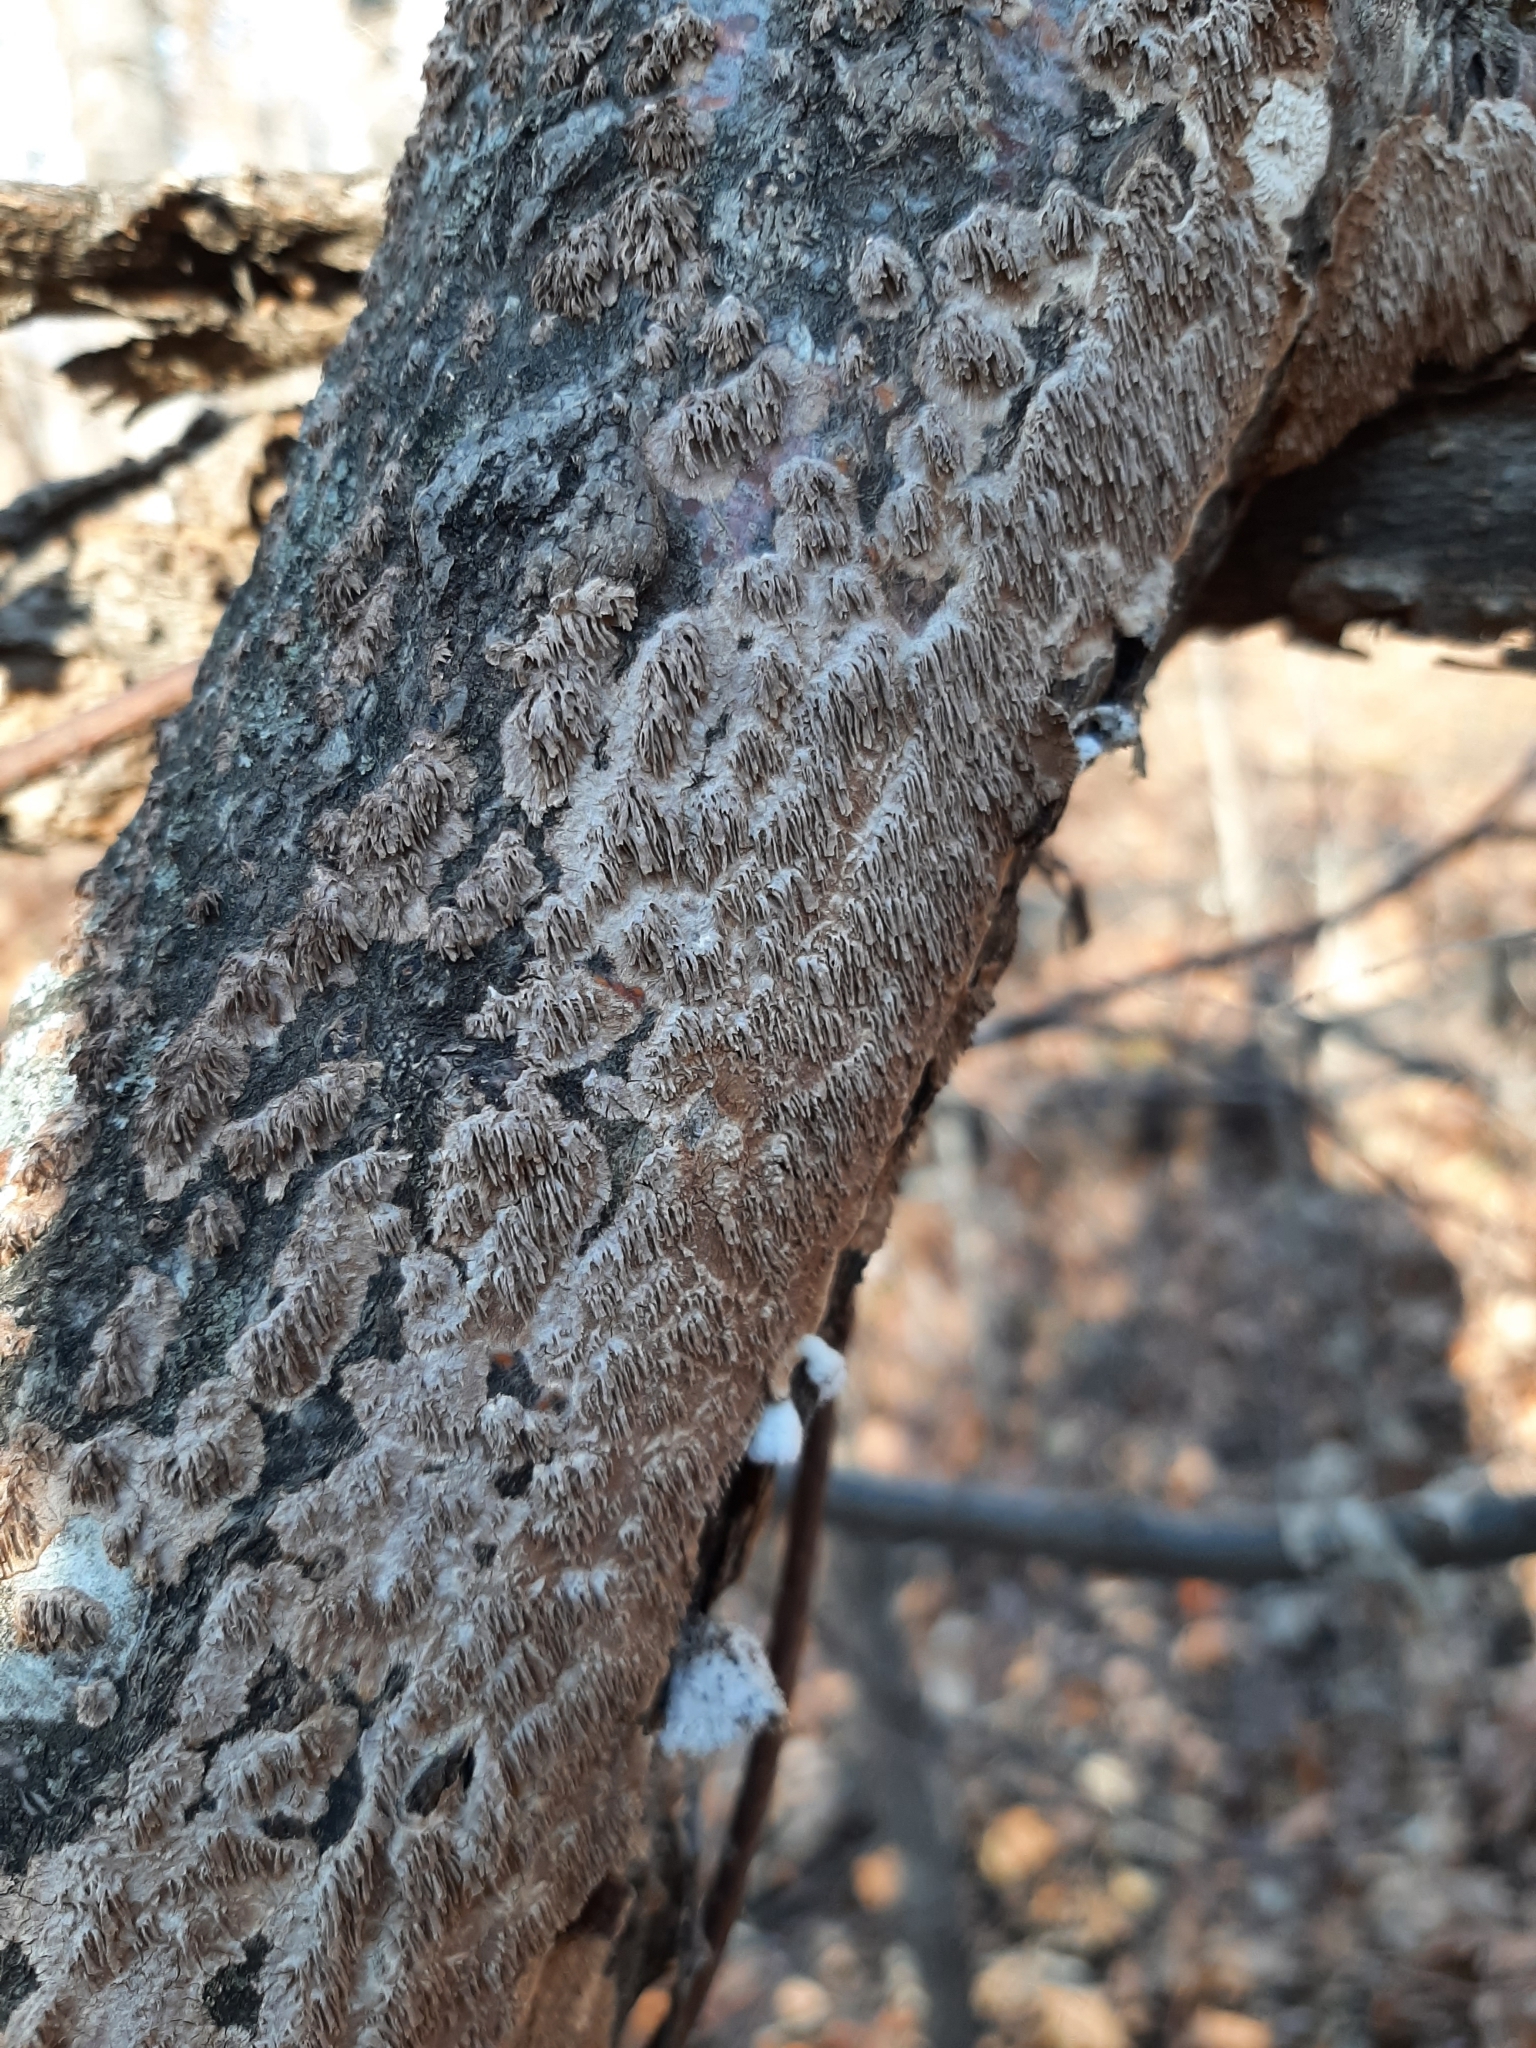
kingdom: Fungi
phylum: Basidiomycota
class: Agaricomycetes
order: Hymenochaetales
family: Hymenochaetaceae
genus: Hydnoporia
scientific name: Hydnoporia olivacea
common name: Brown-toothed crust fungus
